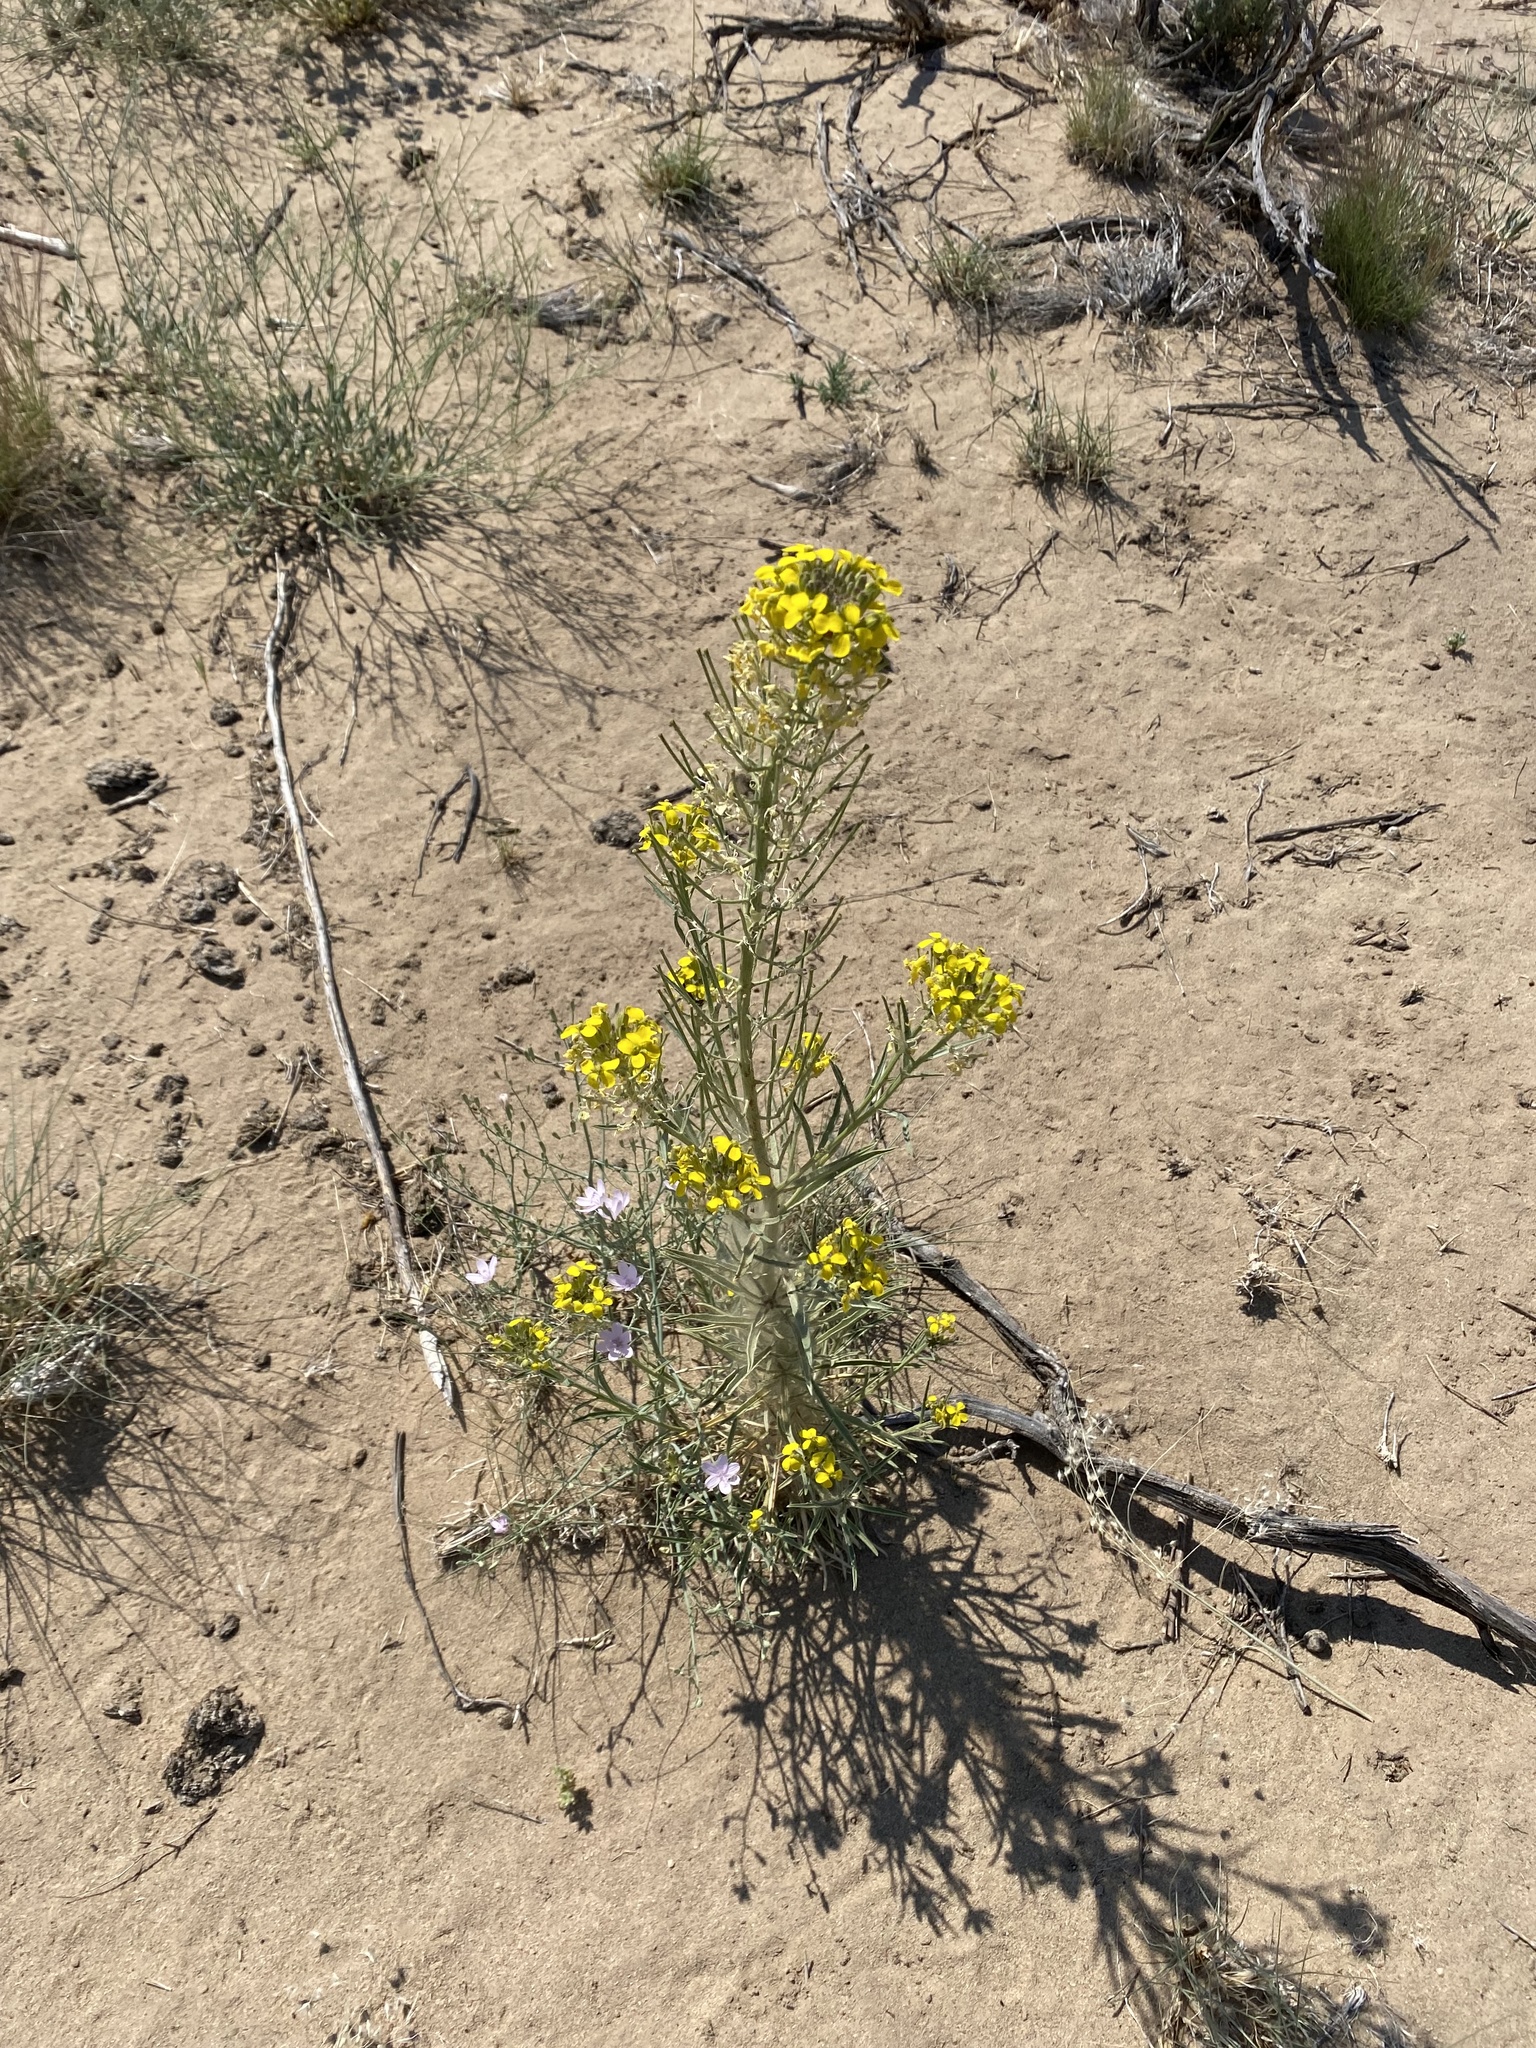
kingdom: Plantae
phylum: Tracheophyta
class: Magnoliopsida
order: Brassicales
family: Brassicaceae
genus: Erysimum
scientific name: Erysimum capitatum
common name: Western wallflower
